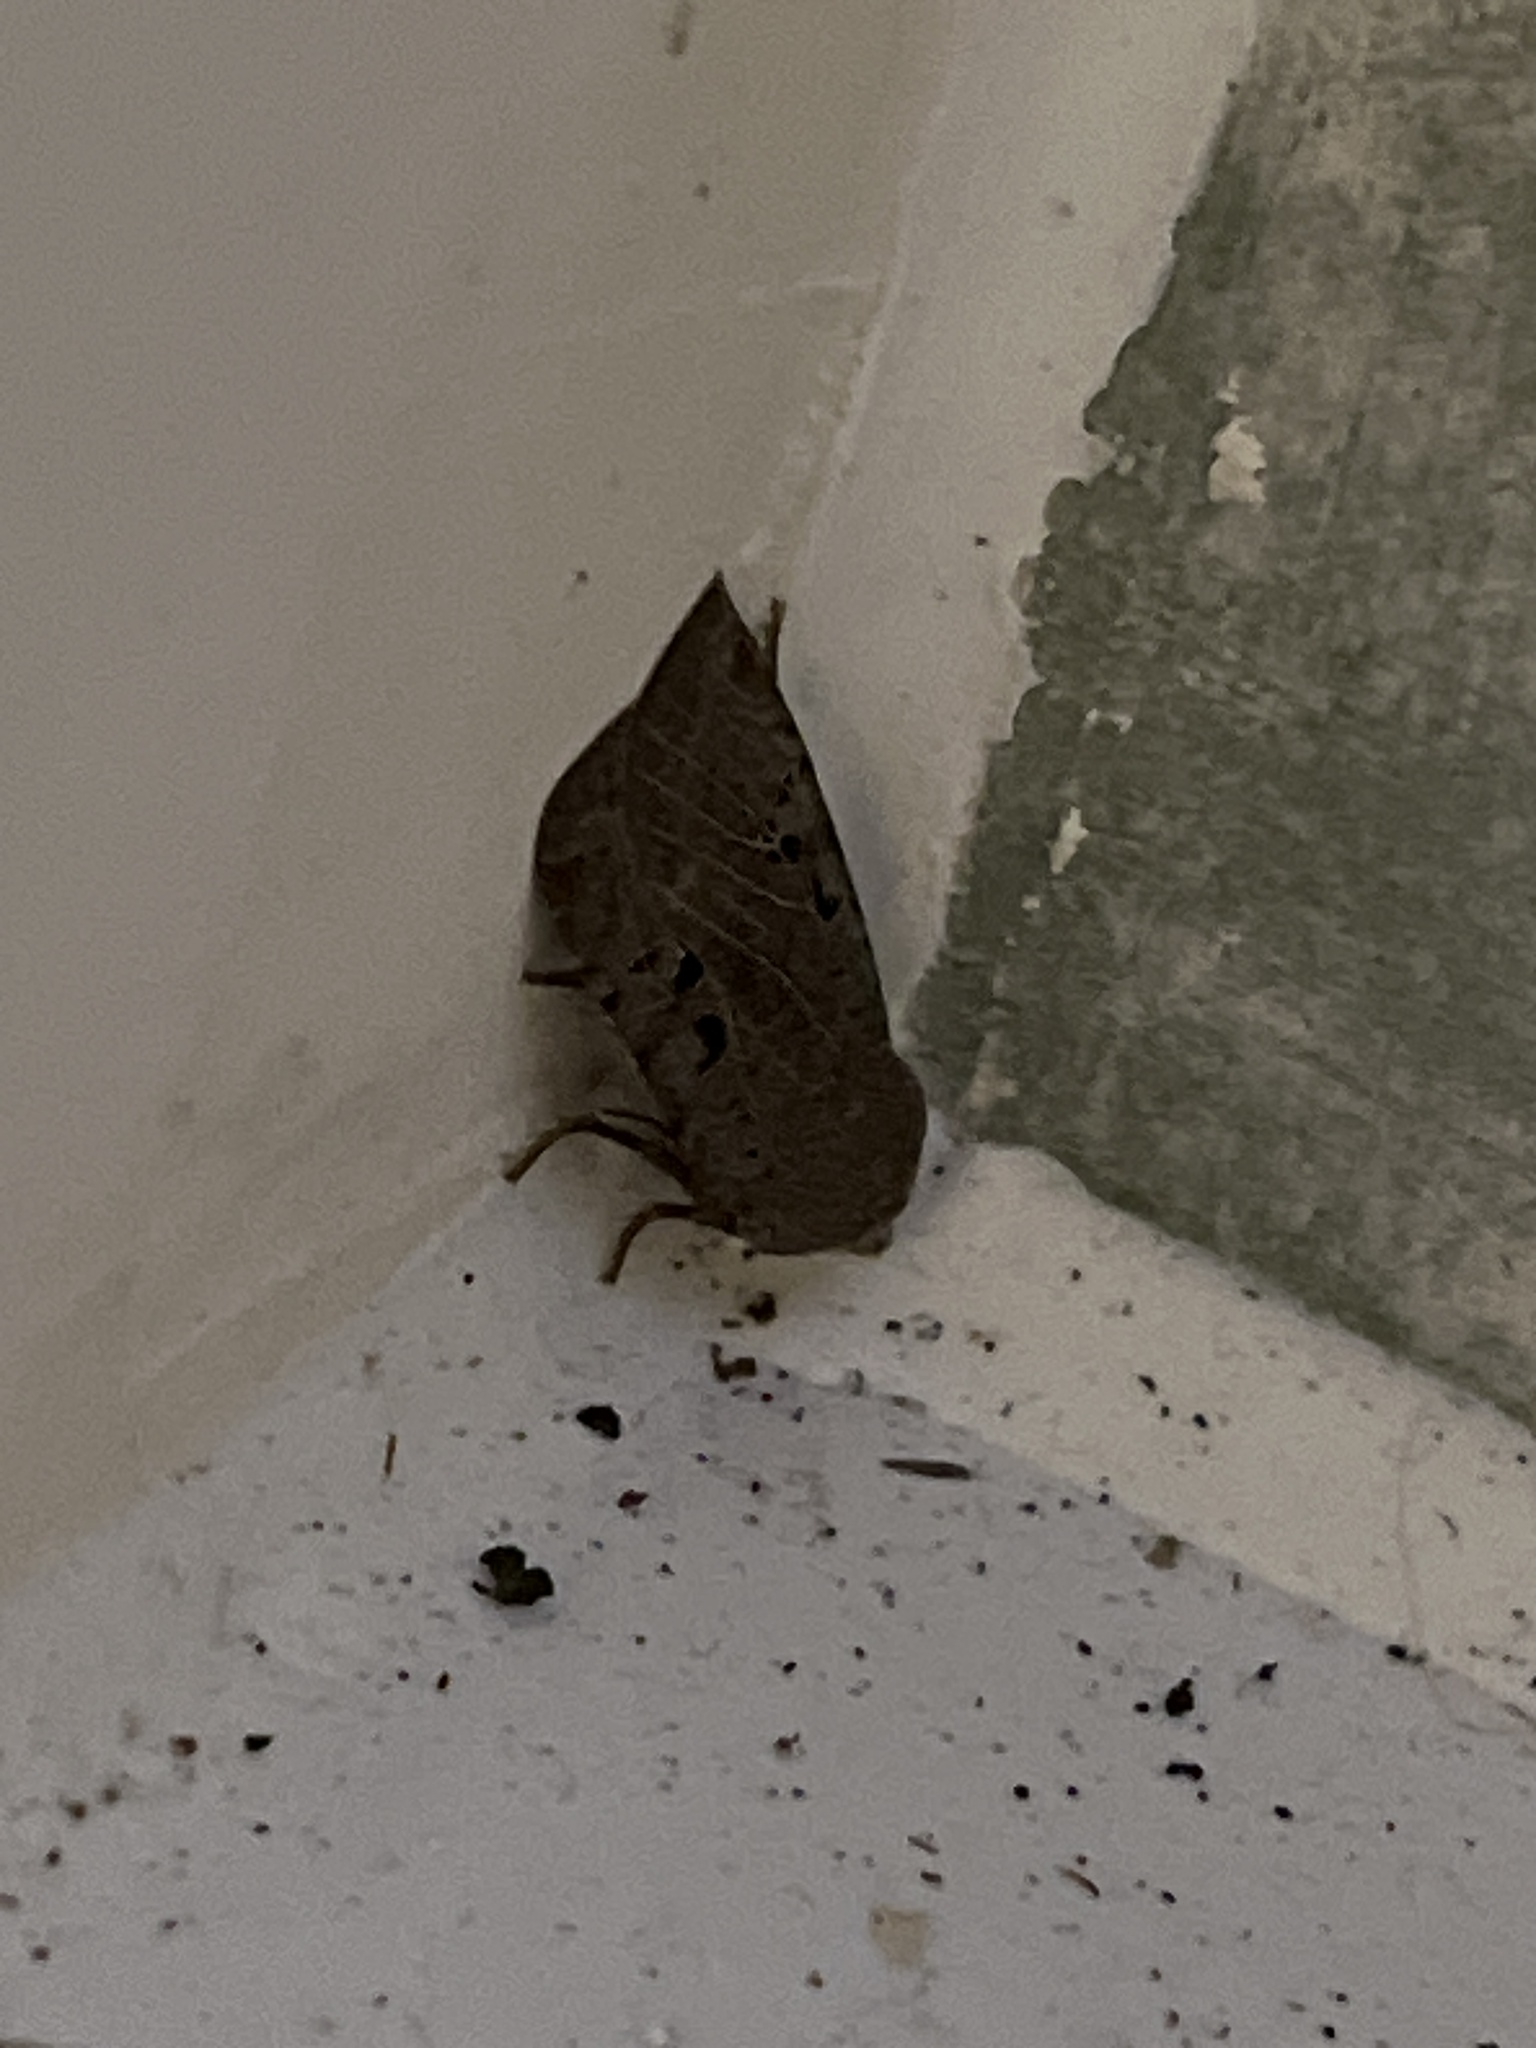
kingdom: Animalia
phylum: Arthropoda
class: Insecta
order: Lepidoptera
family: Noctuidae
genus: Conistra
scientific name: Conistra rubiginosa
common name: Black-spotted chestnut
